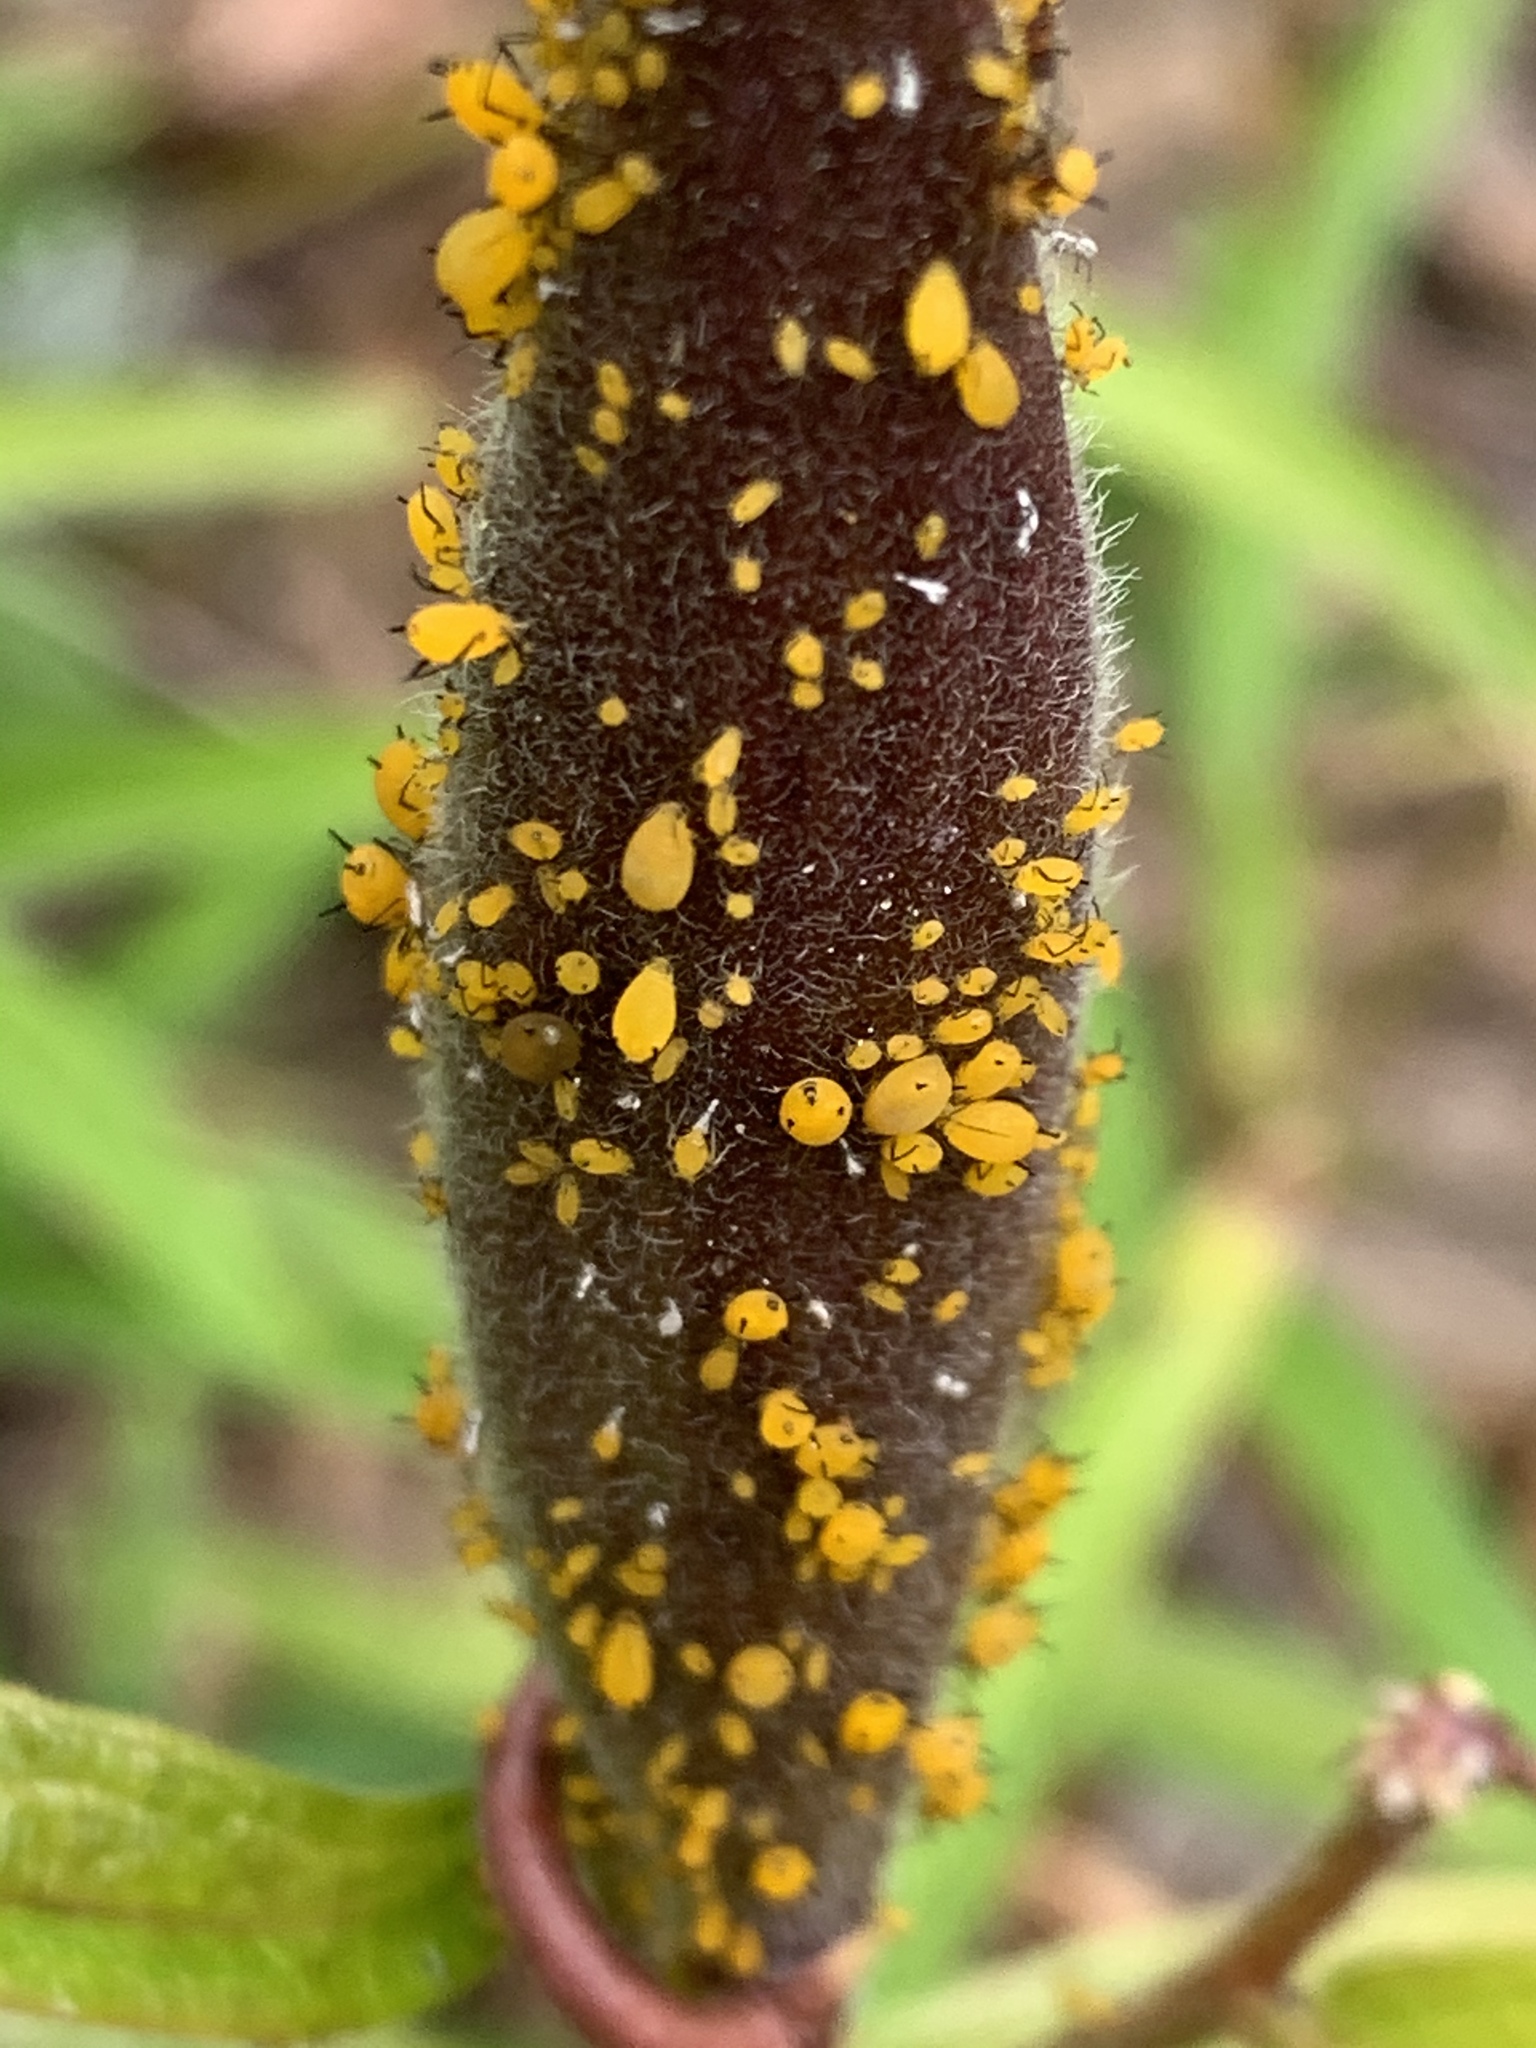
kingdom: Animalia
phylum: Arthropoda
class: Insecta
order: Hemiptera
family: Aphididae
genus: Aphis
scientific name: Aphis nerii
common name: Oleander aphid
